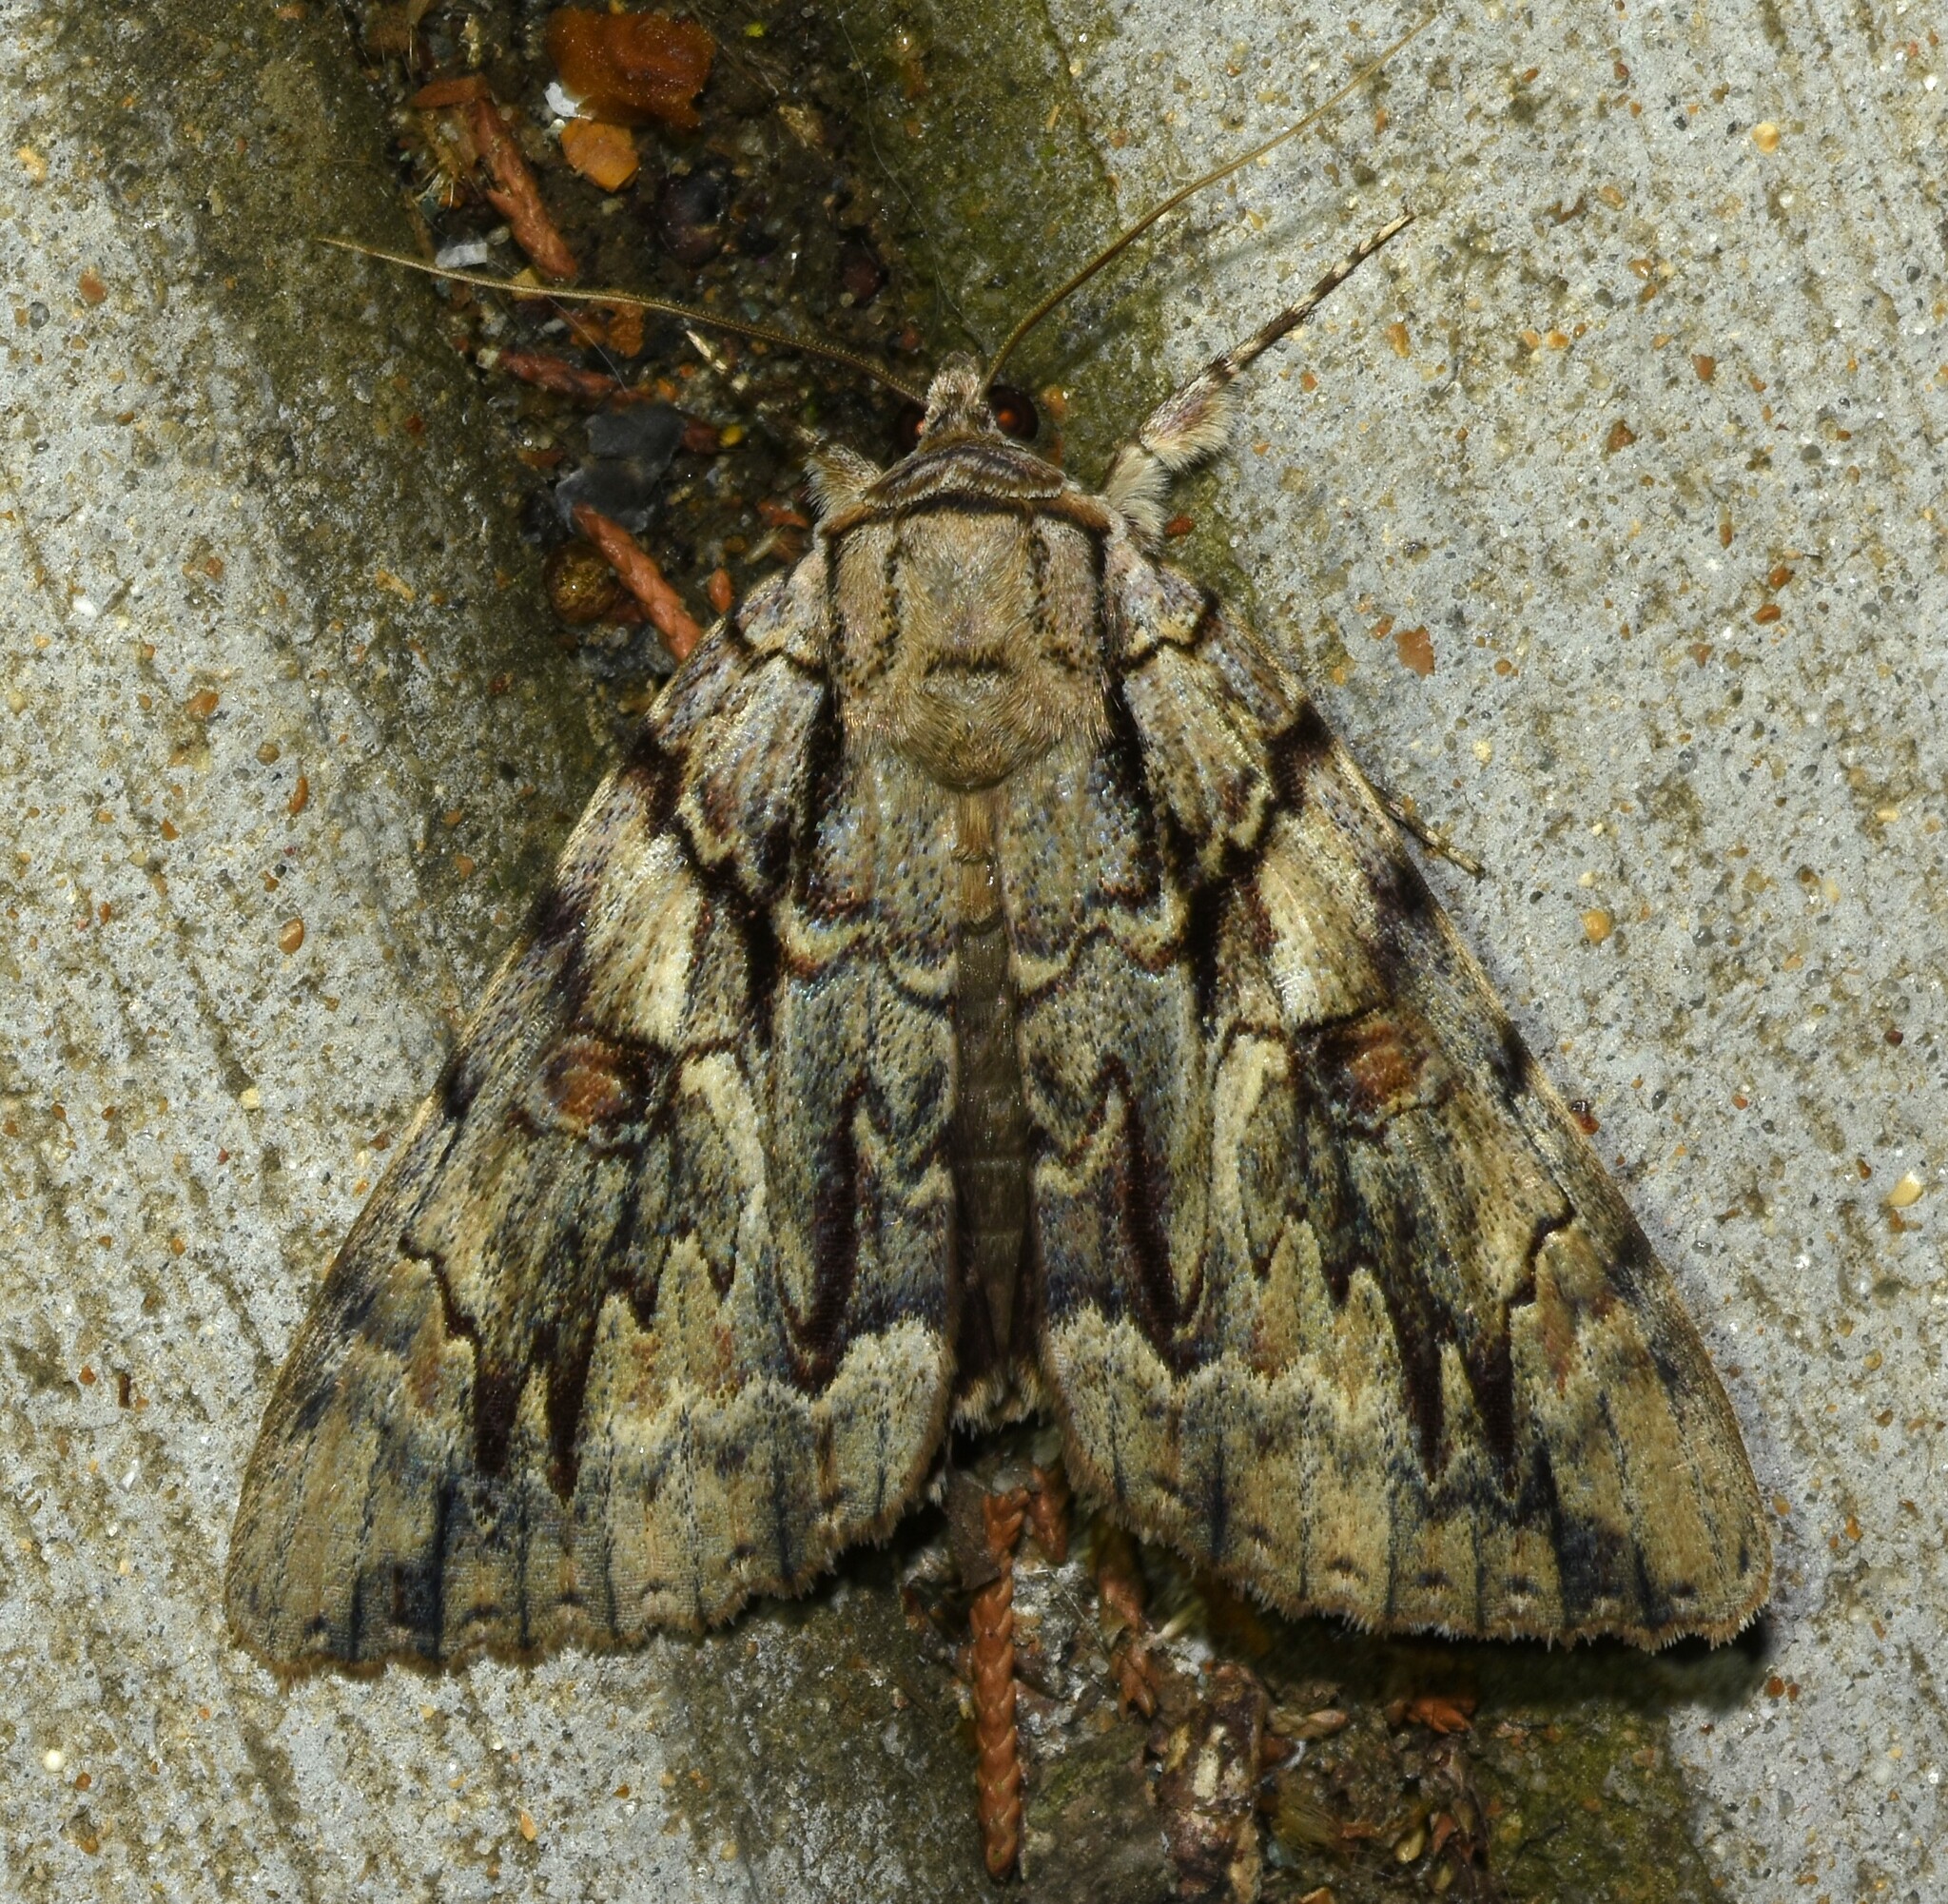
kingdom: Animalia
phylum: Arthropoda
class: Insecta
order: Lepidoptera
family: Erebidae
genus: Catocala
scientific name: Catocala luctuosa
